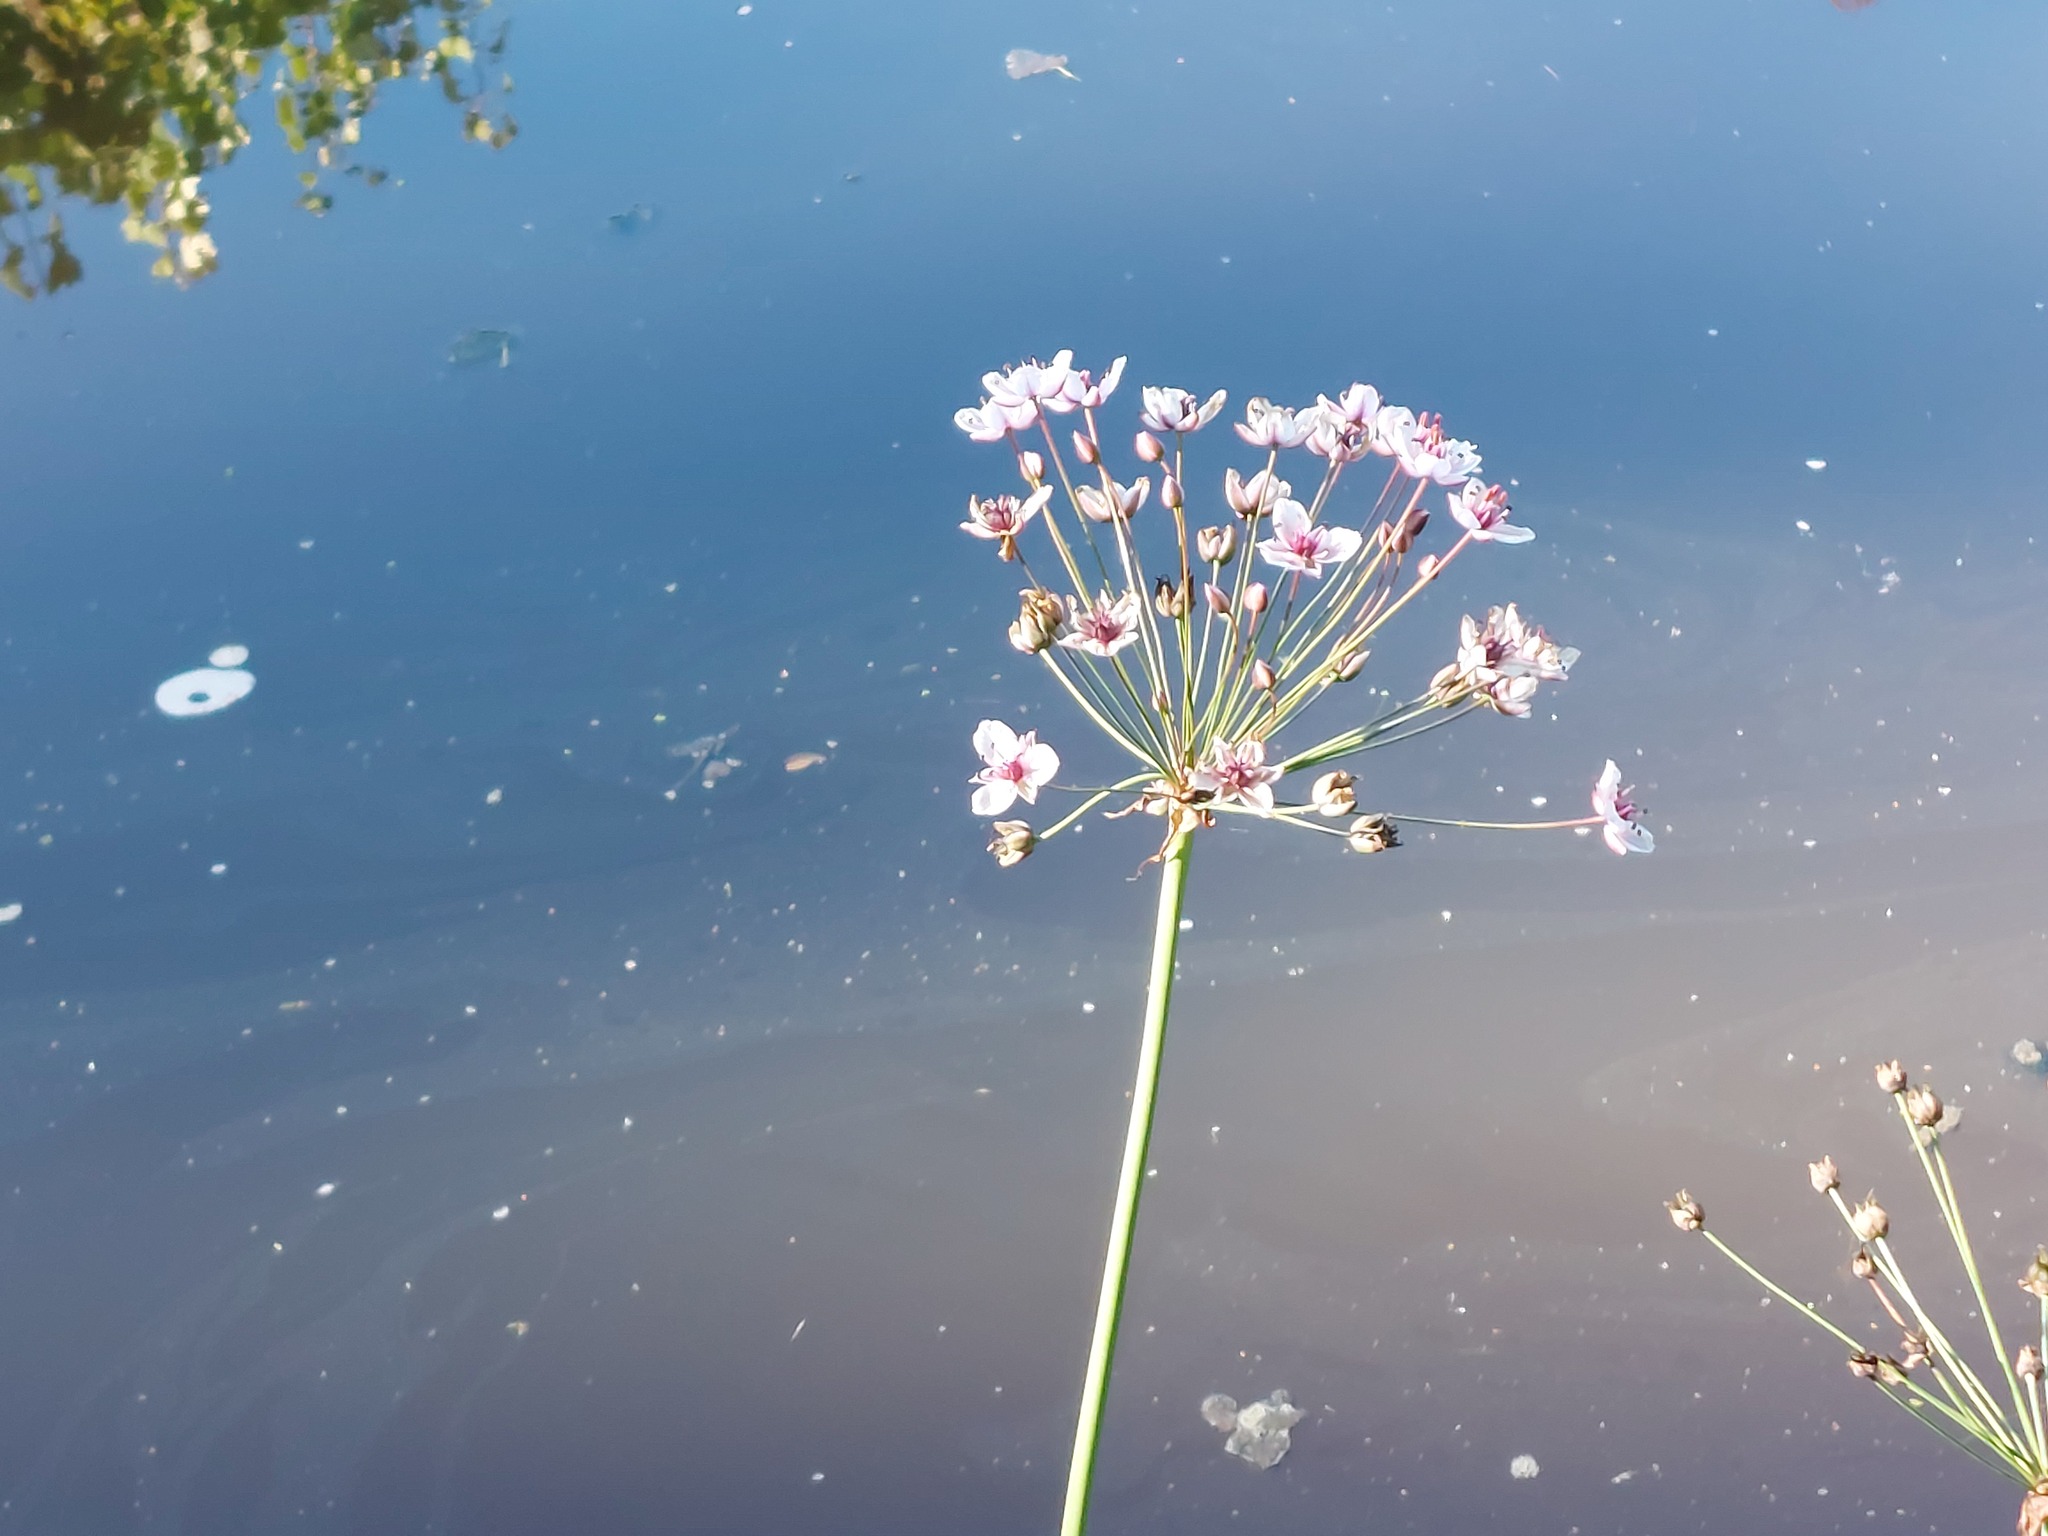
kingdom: Plantae
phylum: Tracheophyta
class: Liliopsida
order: Alismatales
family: Butomaceae
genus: Butomus
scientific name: Butomus umbellatus
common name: Flowering-rush
